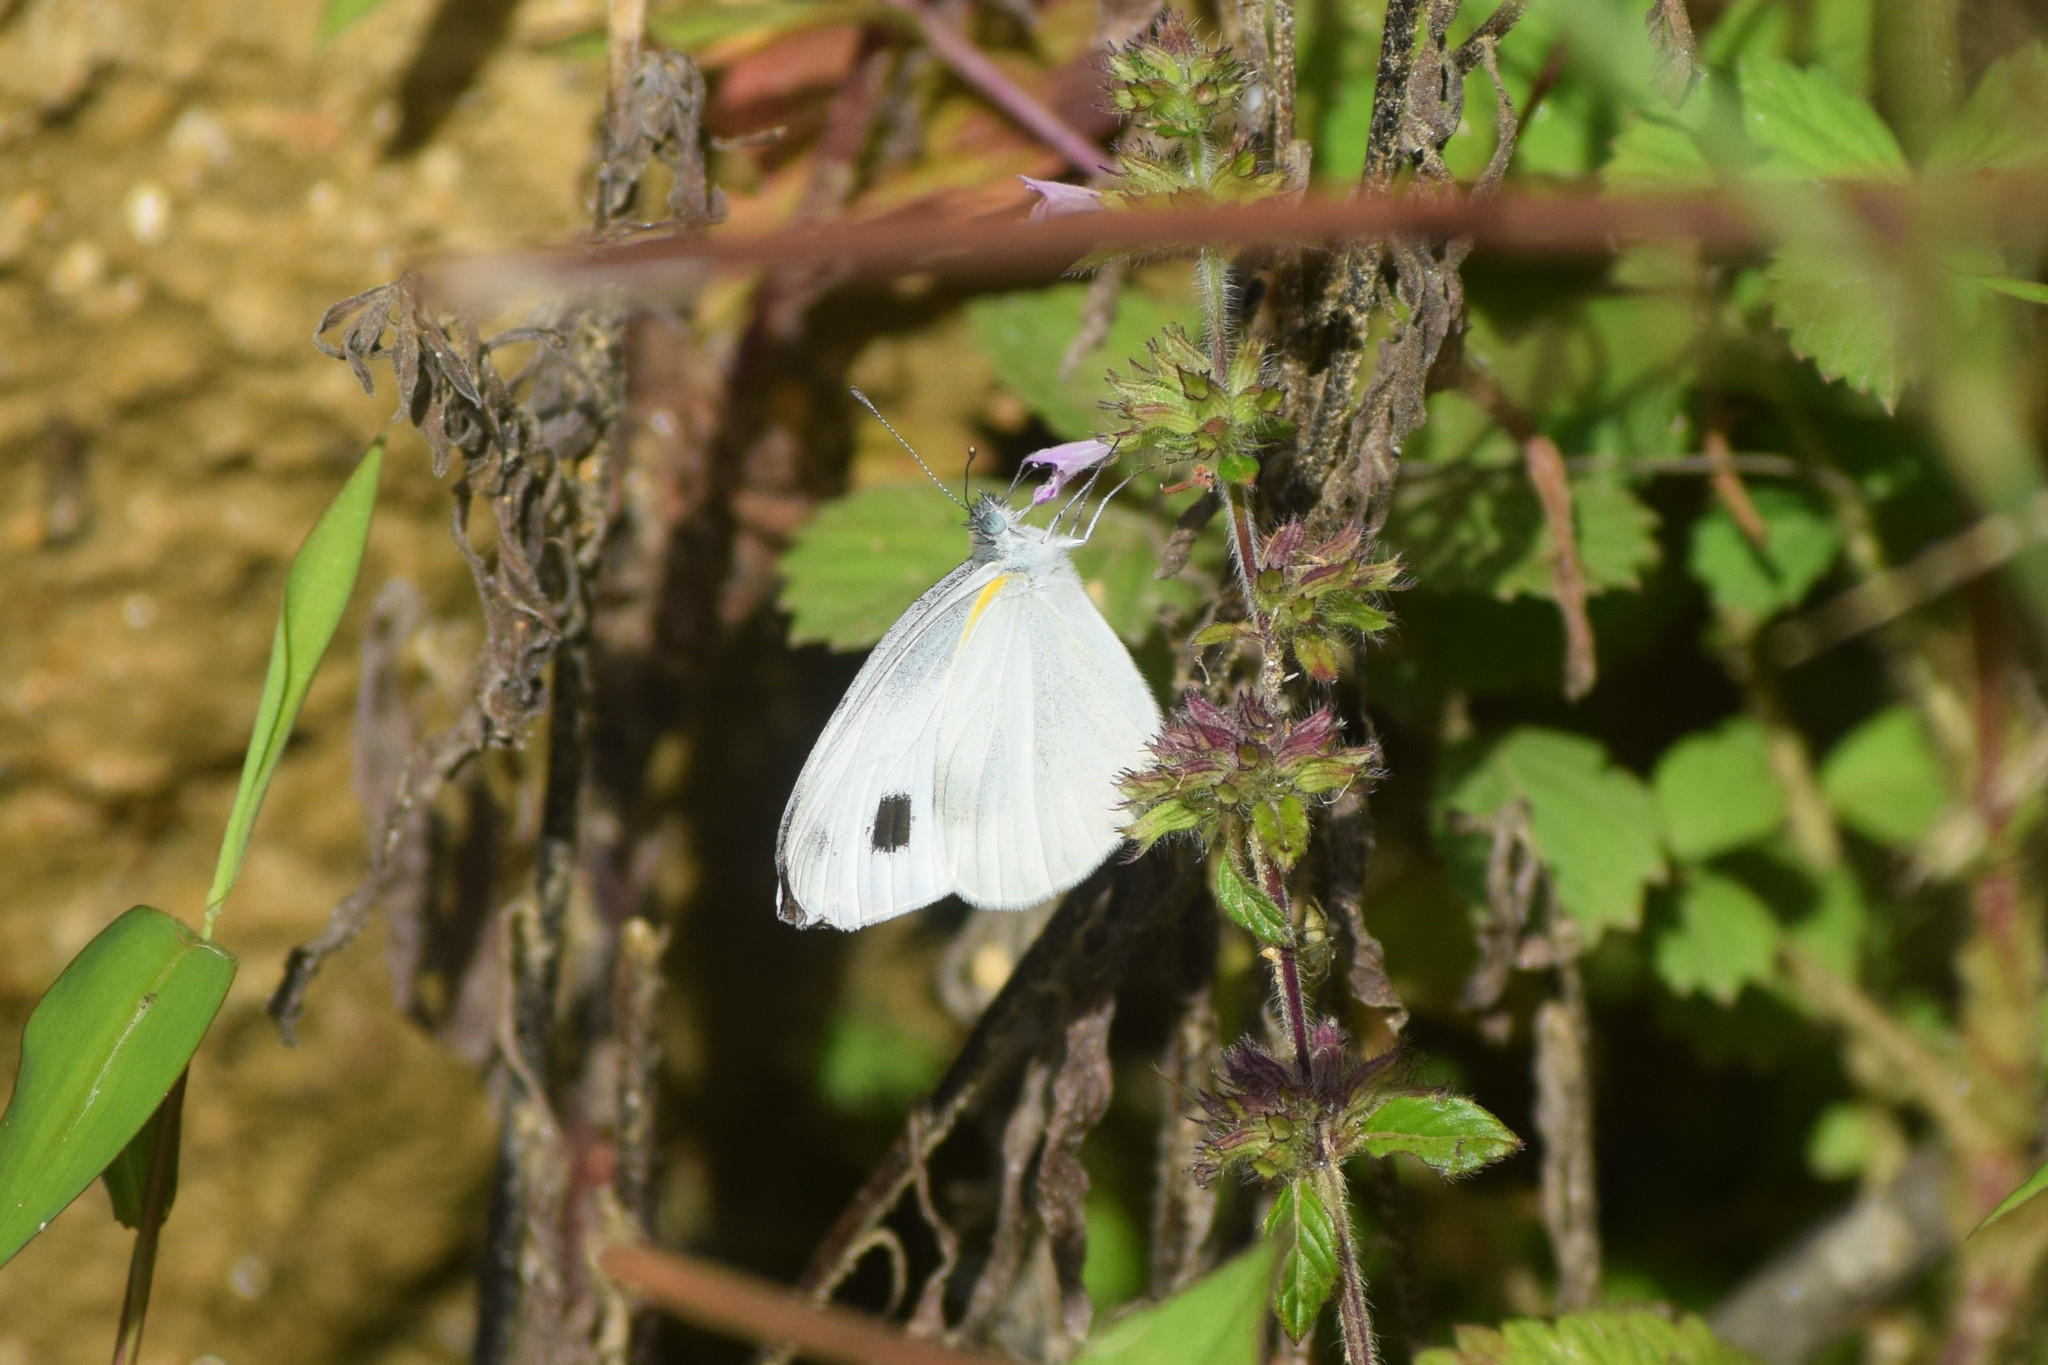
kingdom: Animalia
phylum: Arthropoda
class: Insecta
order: Lepidoptera
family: Pieridae
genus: Pieris
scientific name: Pieris canidia
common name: Indian cabbage white
